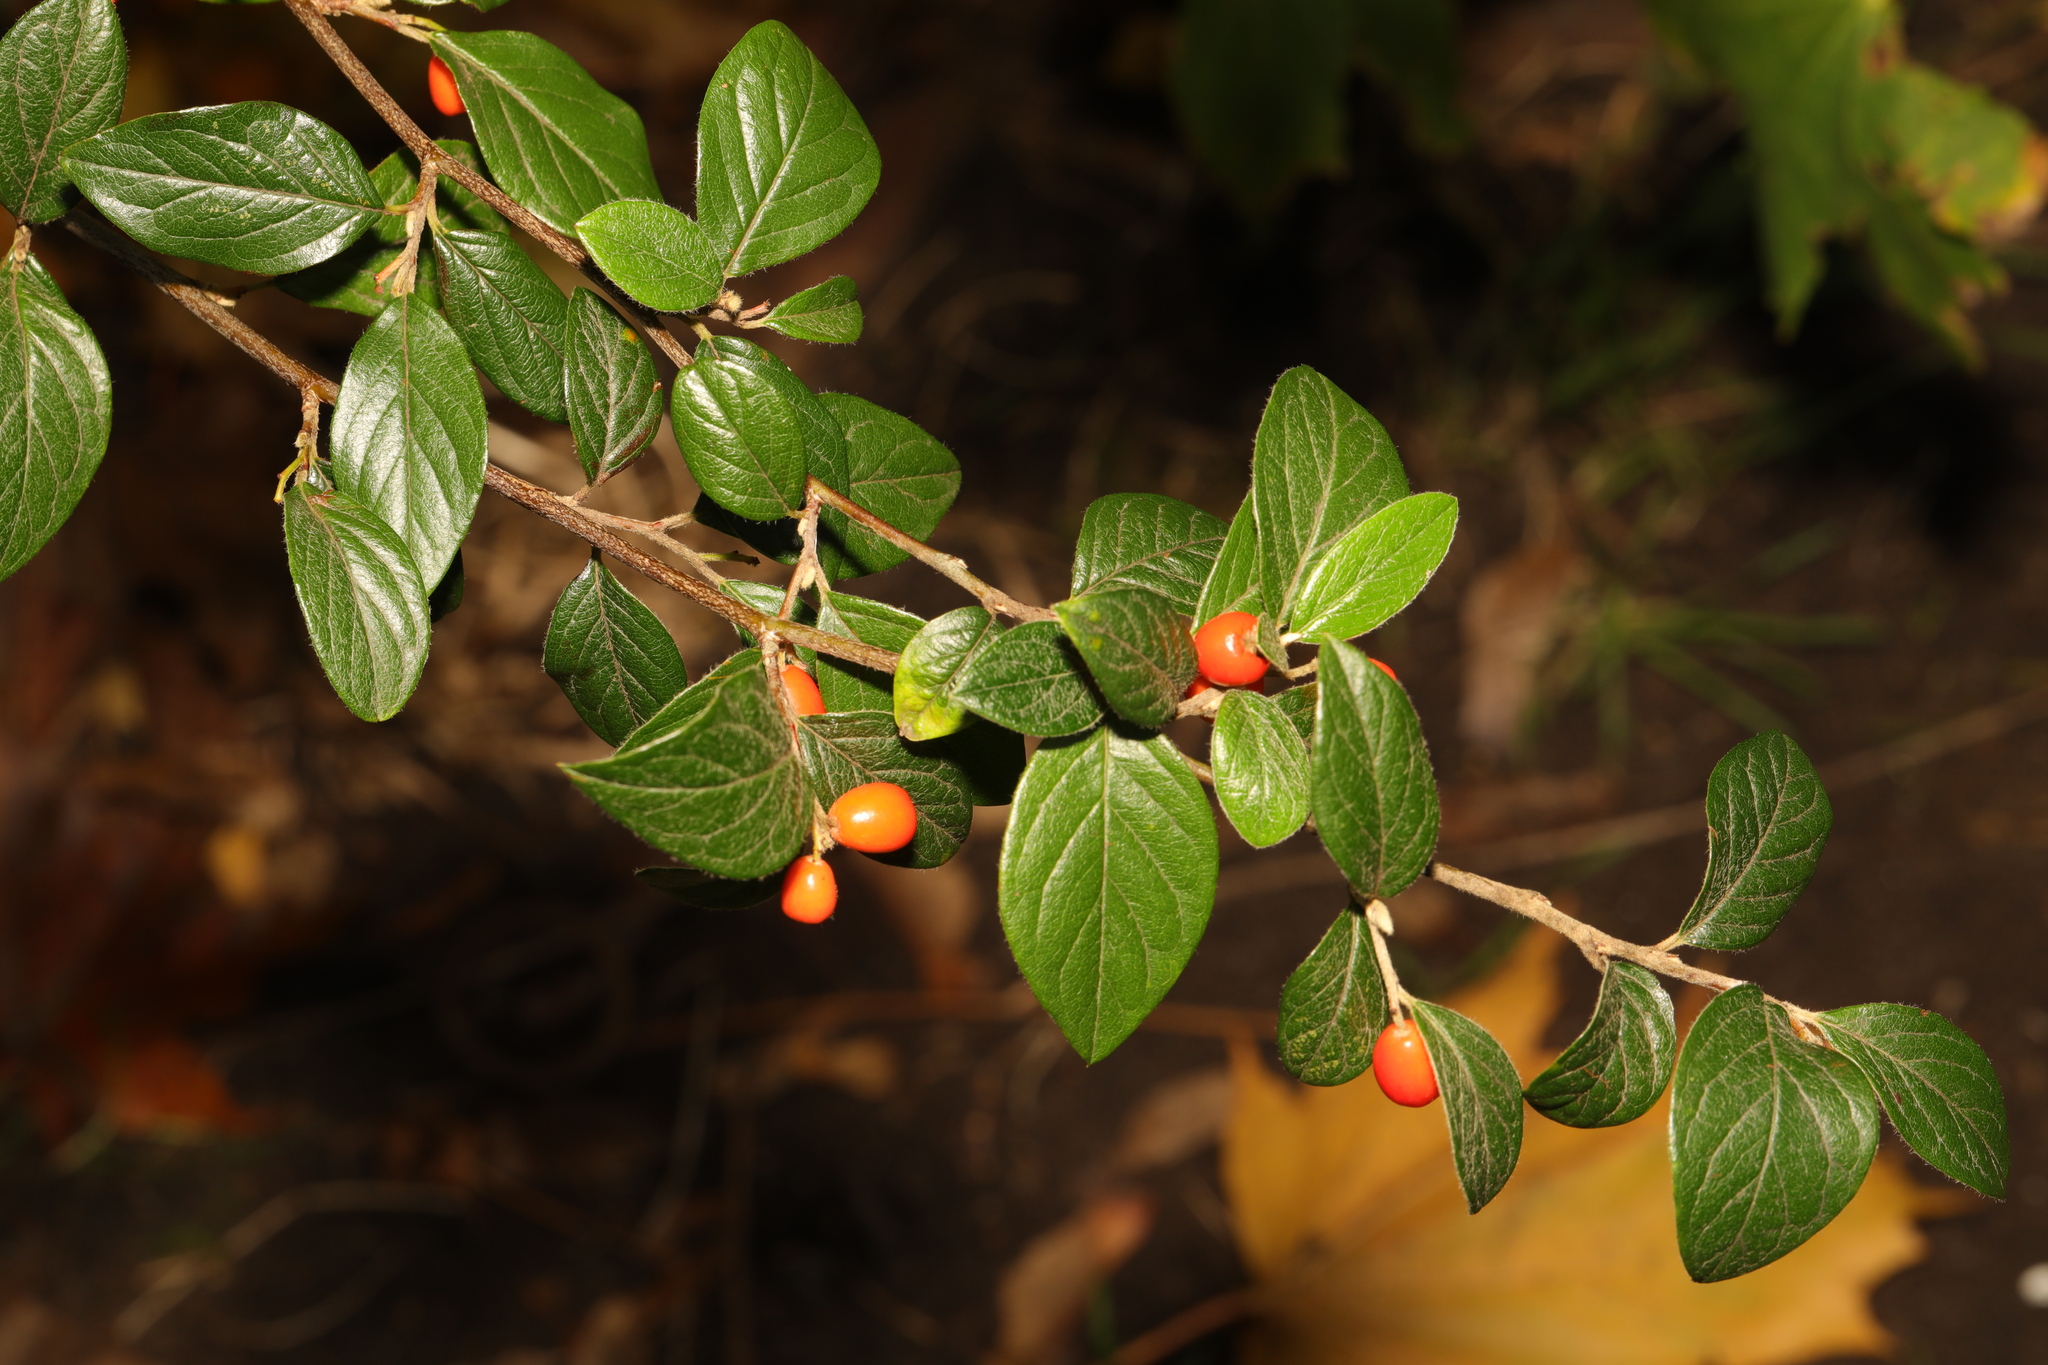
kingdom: Plantae
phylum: Tracheophyta
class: Magnoliopsida
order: Rosales
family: Rosaceae
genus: Cotoneaster
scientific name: Cotoneaster franchetii
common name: Franchet's cotoneaster
